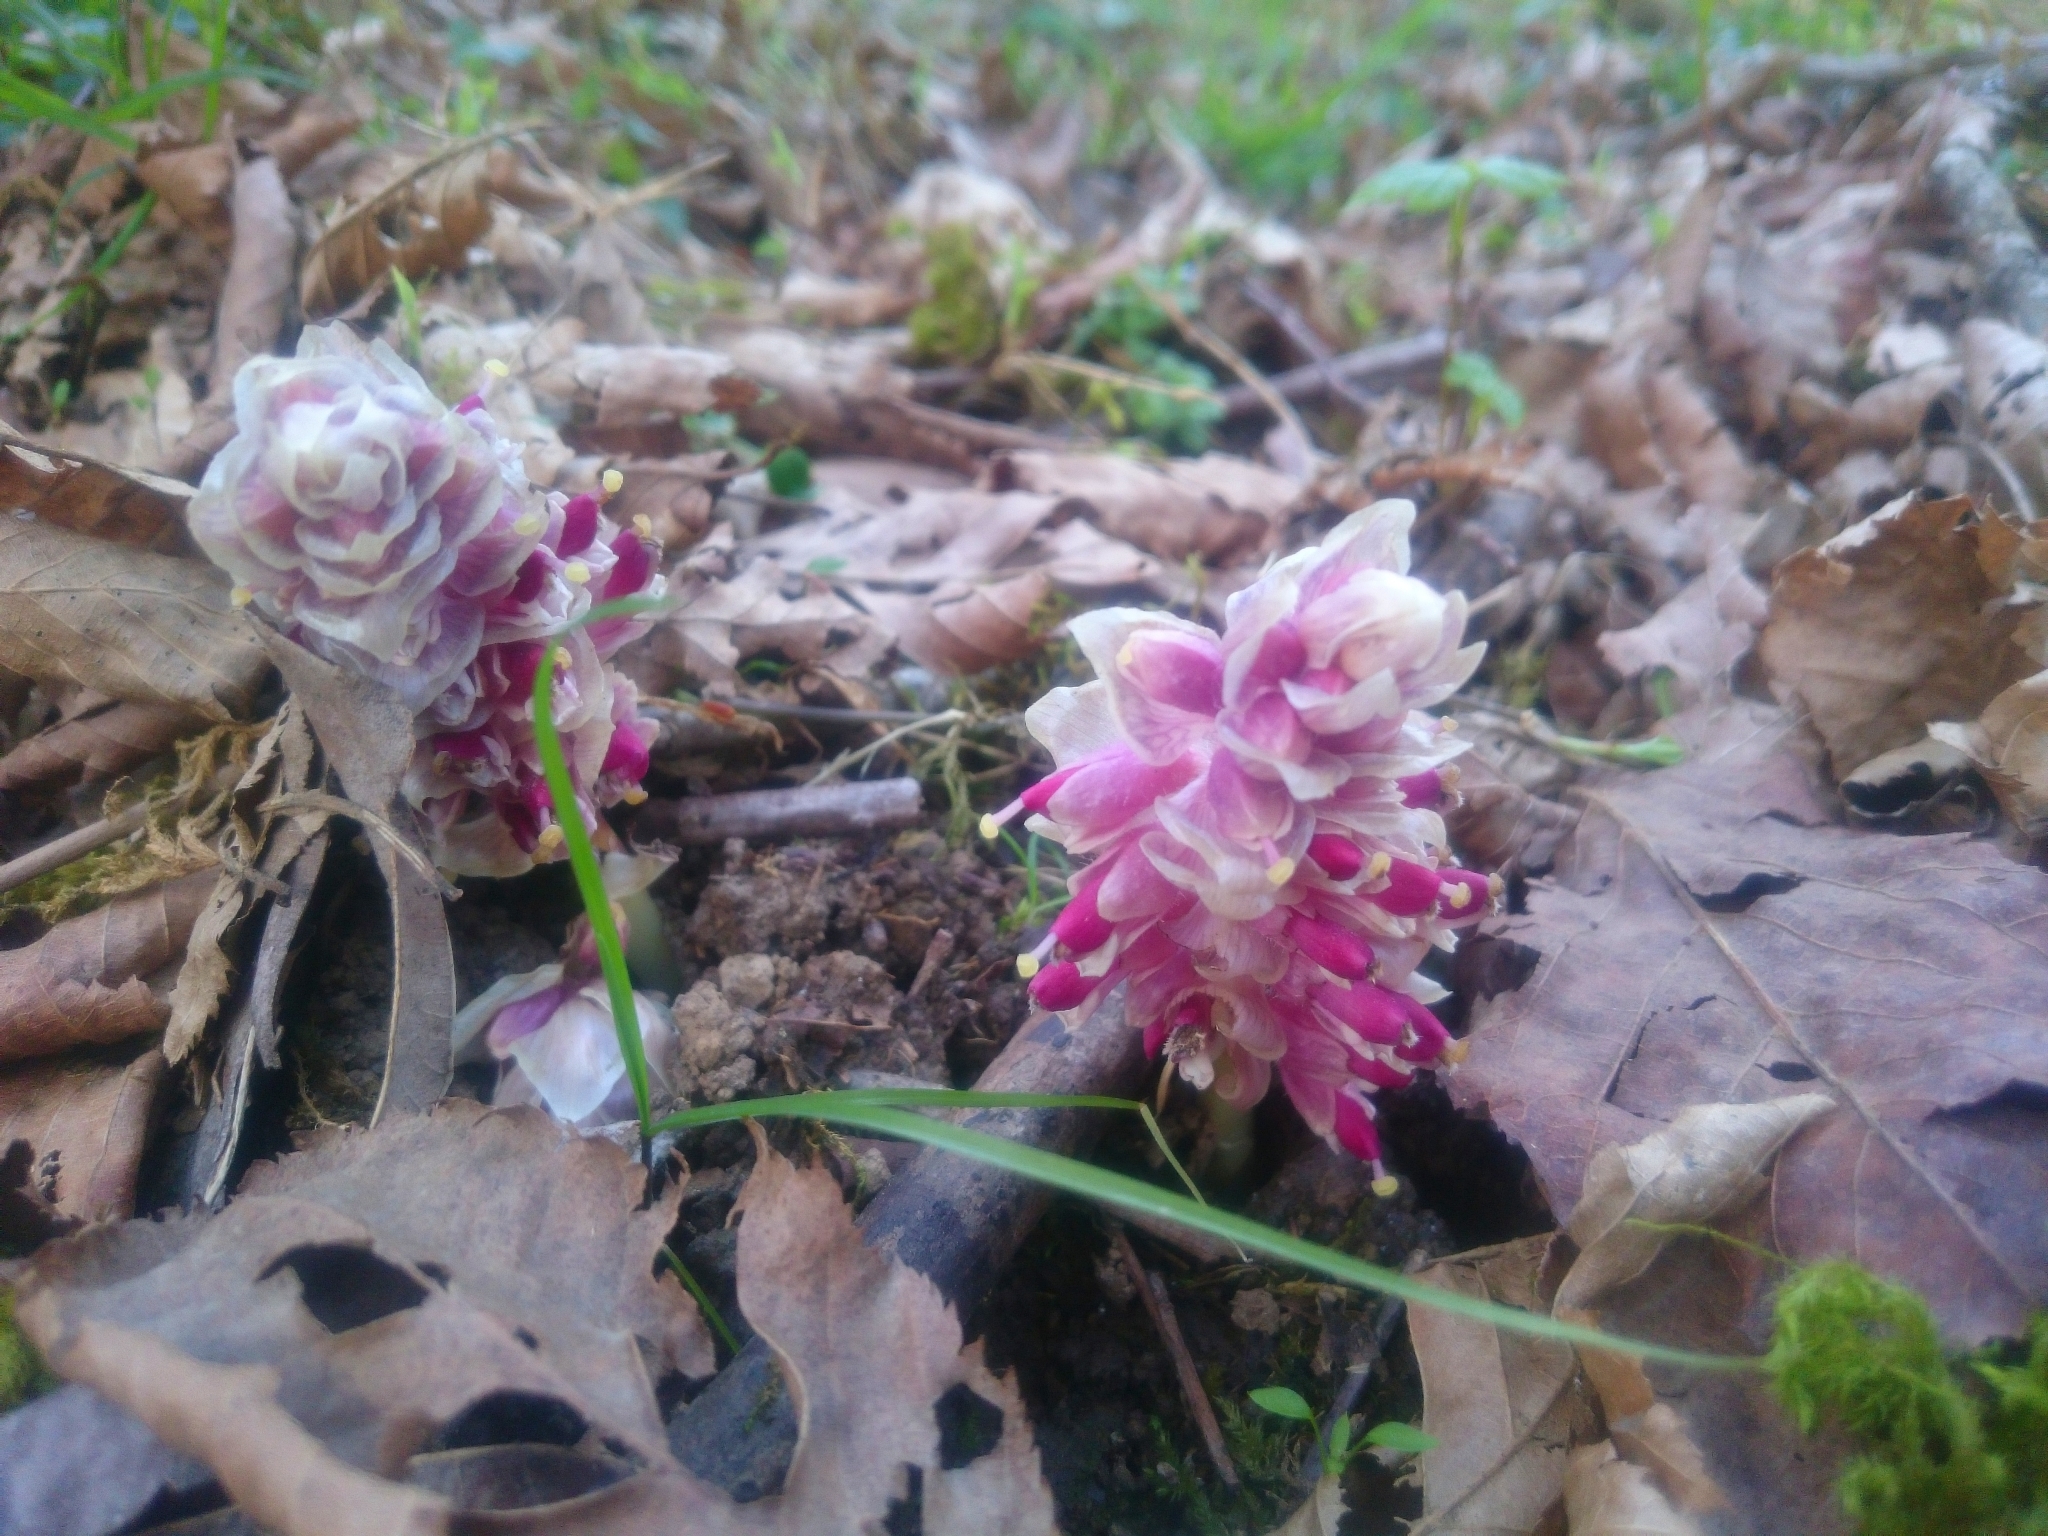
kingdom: Plantae
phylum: Tracheophyta
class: Magnoliopsida
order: Lamiales
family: Orobanchaceae
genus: Lathraea
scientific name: Lathraea squamaria
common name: Toothwort
